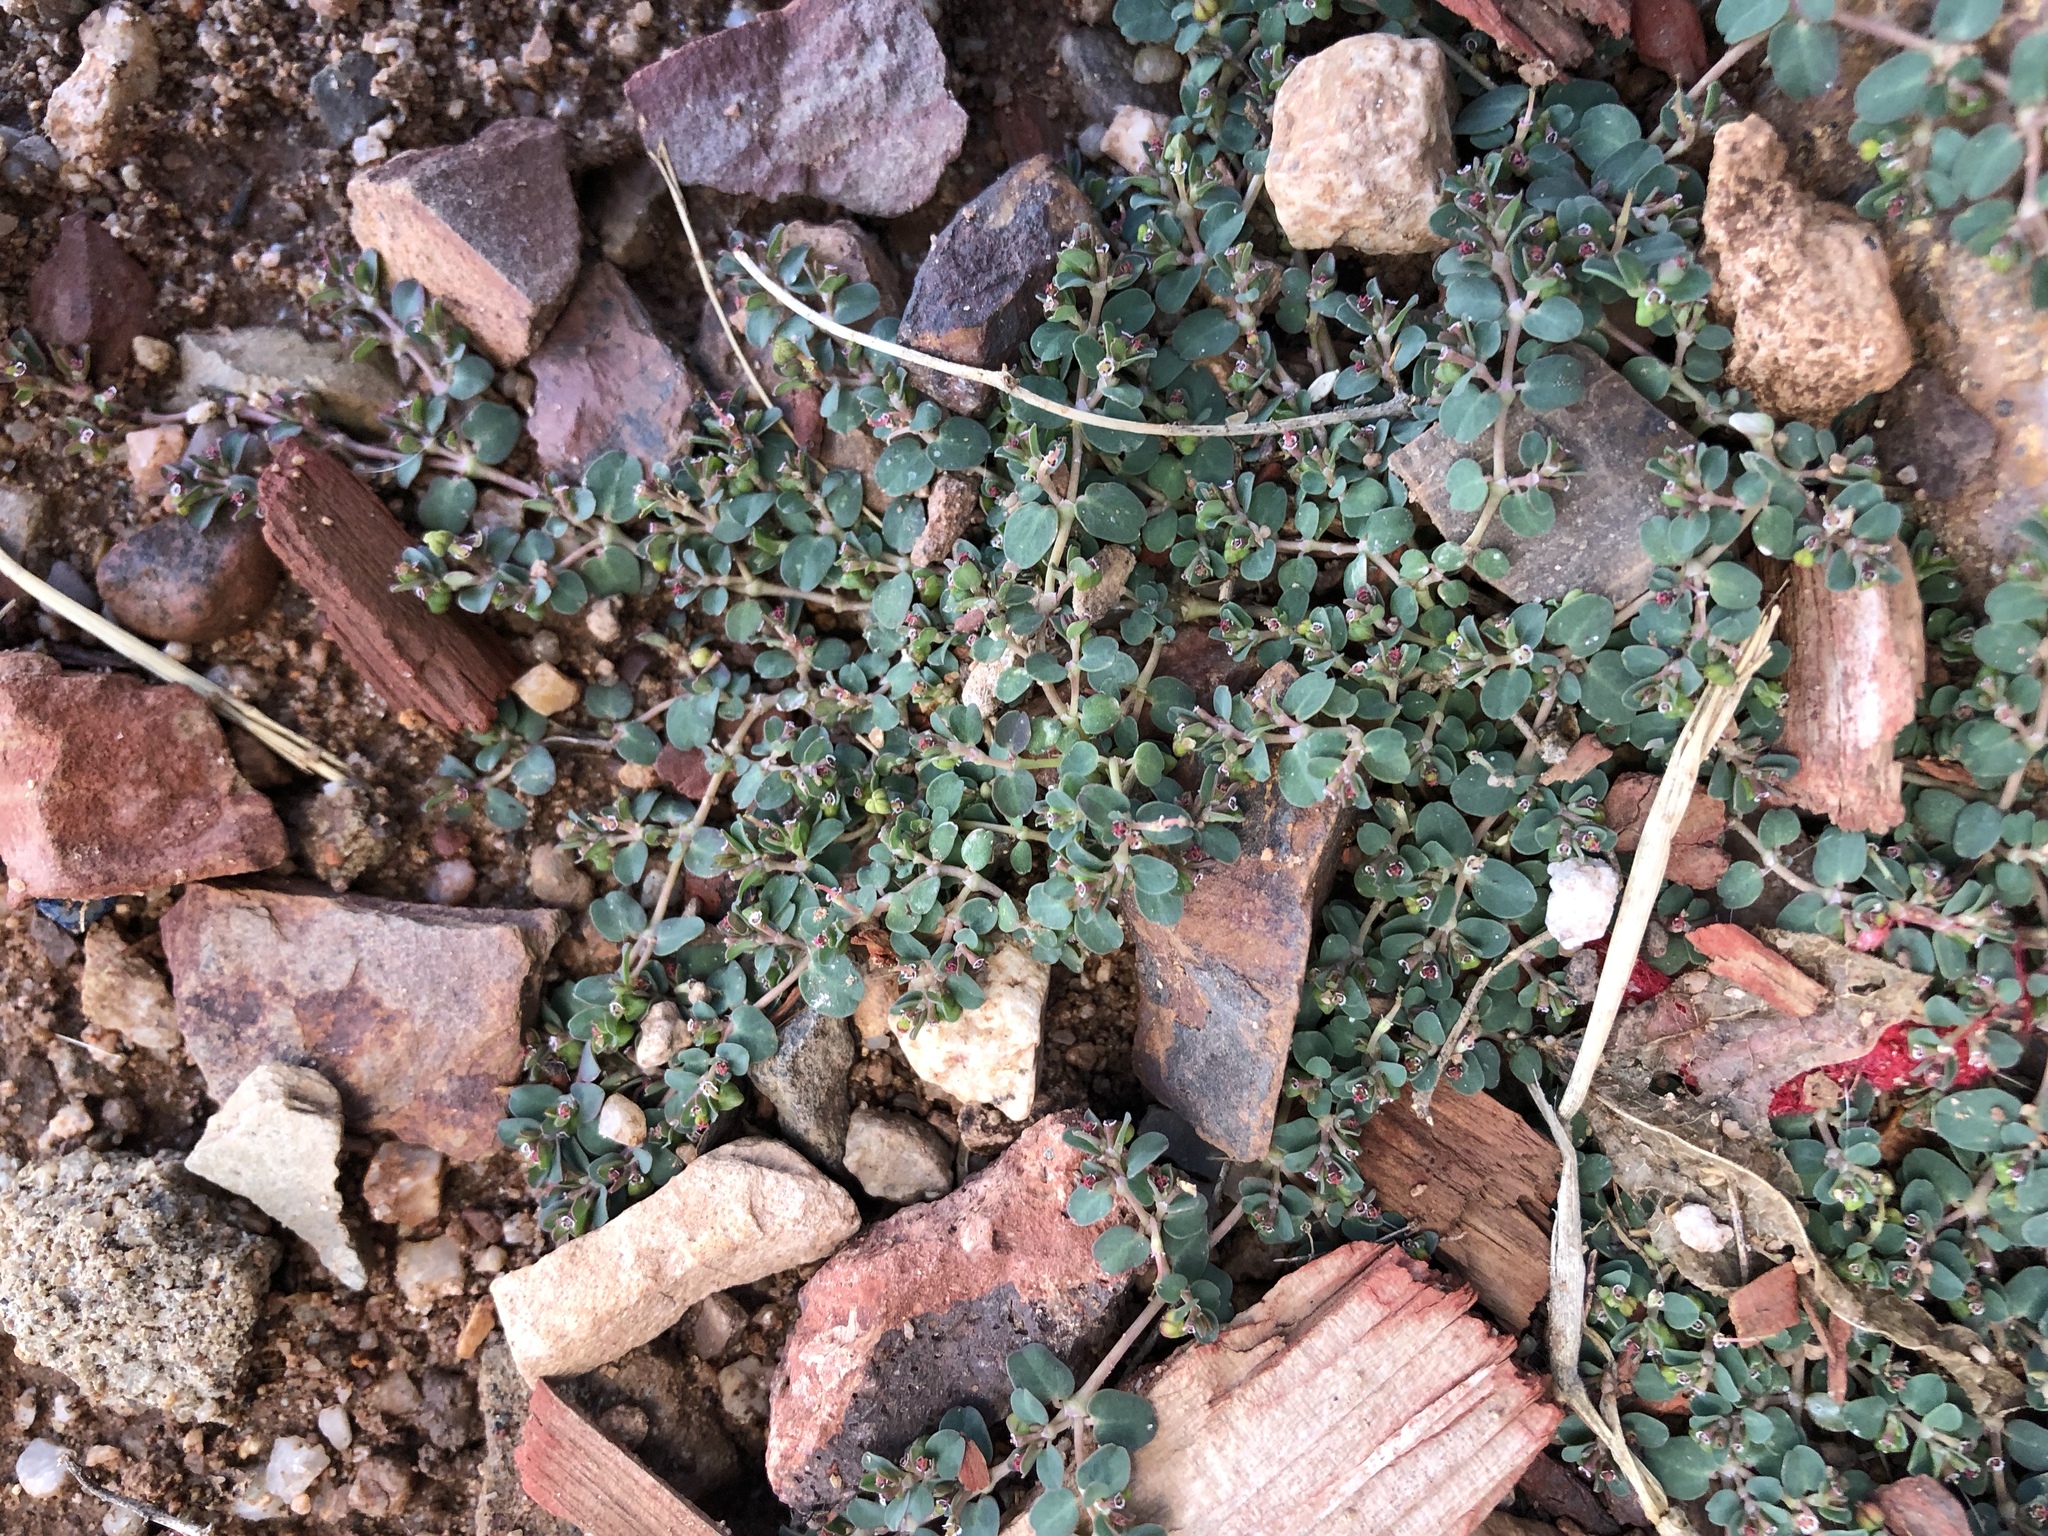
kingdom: Plantae
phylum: Tracheophyta
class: Magnoliopsida
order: Malpighiales
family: Euphorbiaceae
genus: Euphorbia
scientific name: Euphorbia serpens
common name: Matted sandmat
